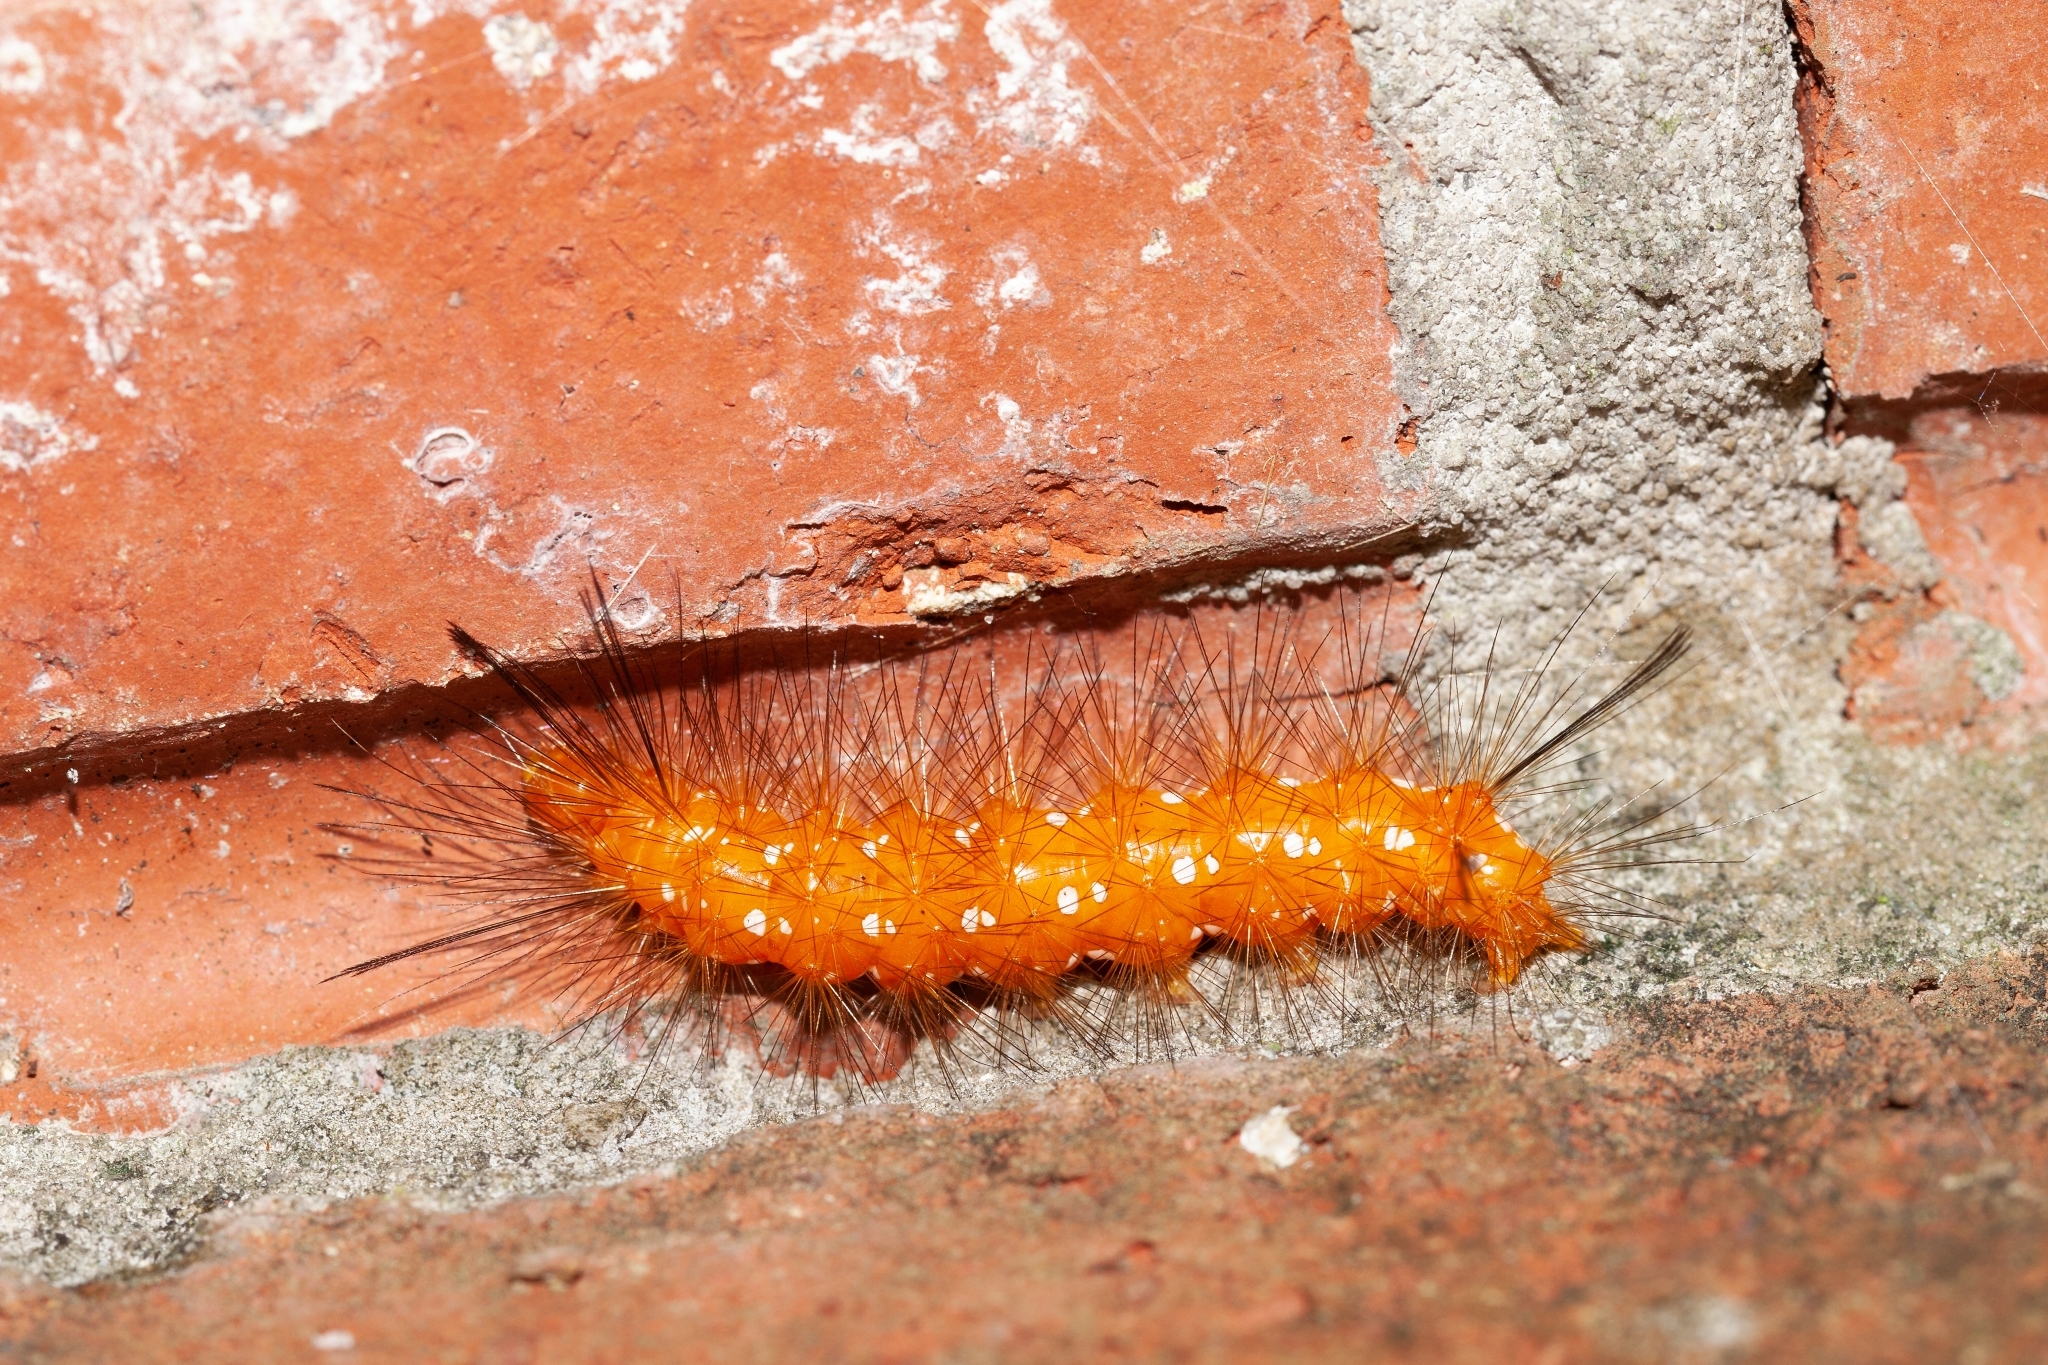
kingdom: Animalia
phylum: Arthropoda
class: Insecta
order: Lepidoptera
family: Erebidae
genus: Empyreuma
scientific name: Empyreuma pugione
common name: Spotted oleander caterpillar moth
